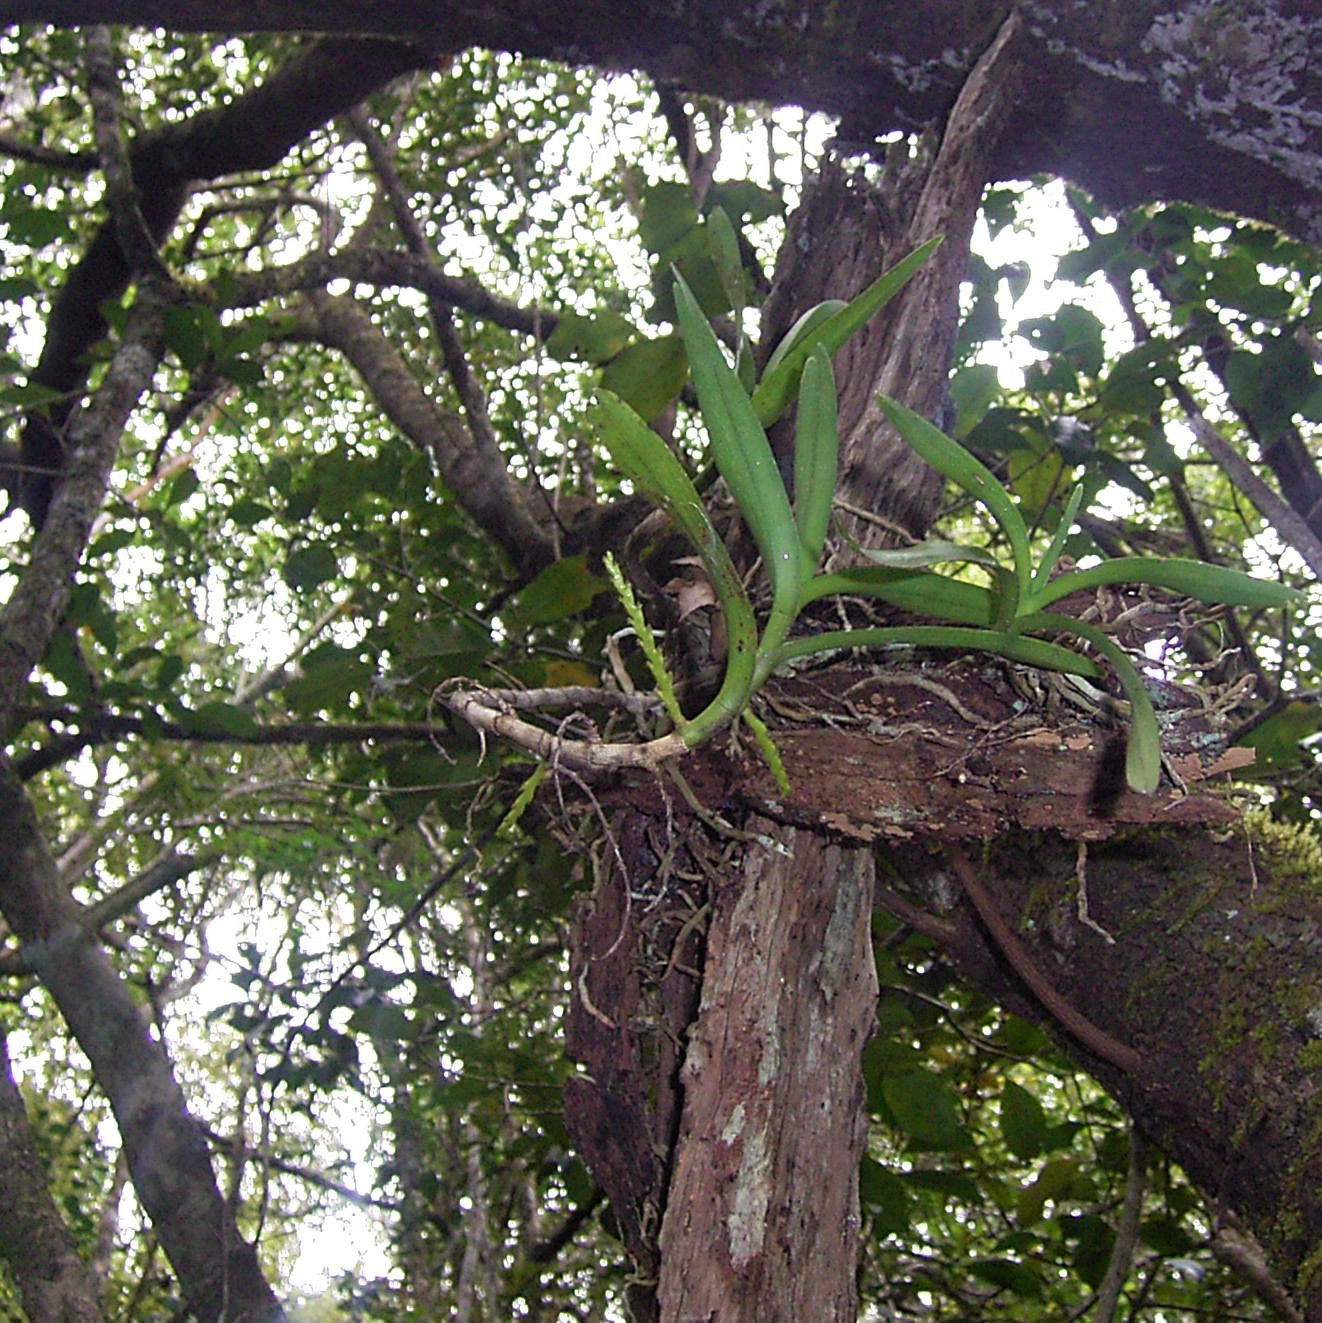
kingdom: Plantae
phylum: Tracheophyta
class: Liliopsida
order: Asparagales
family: Orchidaceae
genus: Tridactyle
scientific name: Tridactyle bicaudata
